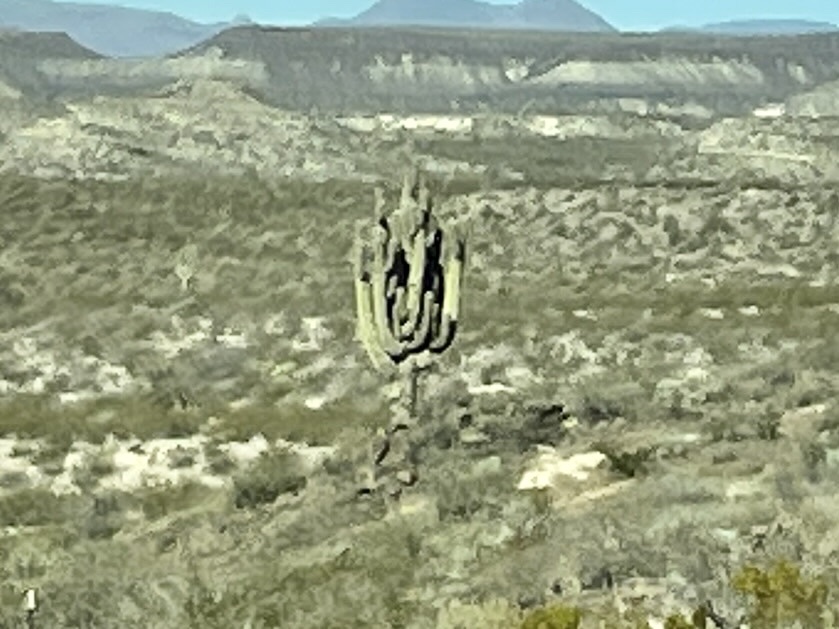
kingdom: Plantae
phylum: Tracheophyta
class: Magnoliopsida
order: Caryophyllales
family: Cactaceae
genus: Carnegiea
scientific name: Carnegiea gigantea
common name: Saguaro
